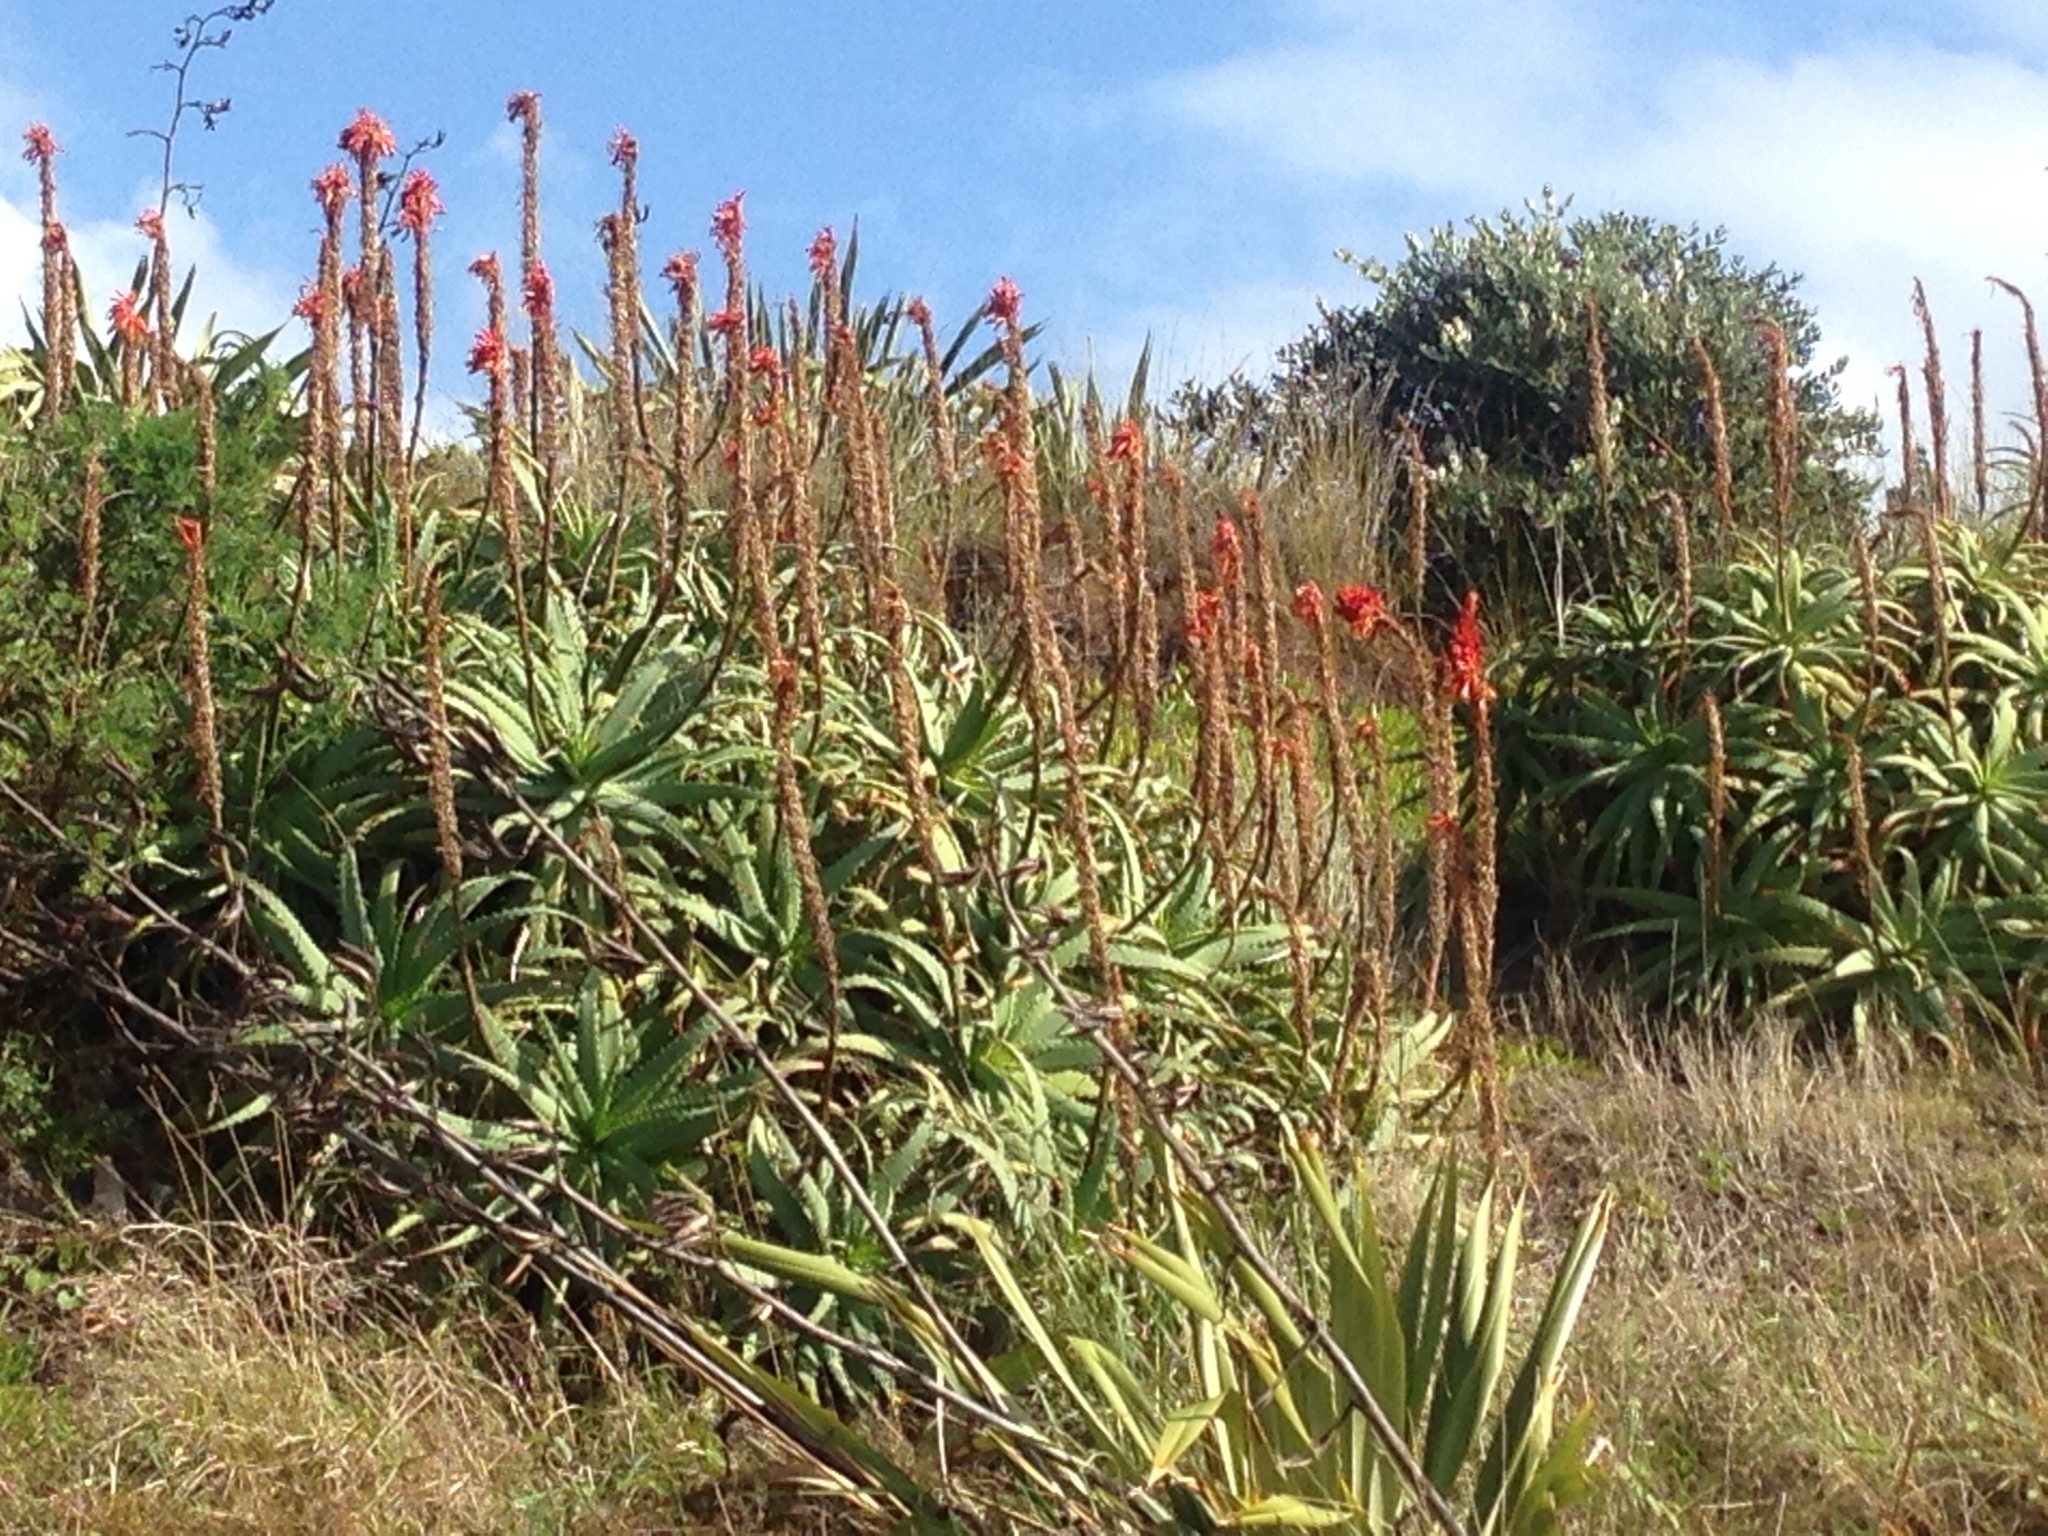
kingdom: Plantae
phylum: Tracheophyta
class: Liliopsida
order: Asparagales
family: Asphodelaceae
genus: Aloe
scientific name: Aloe arborescens
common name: Candelabra aloe
